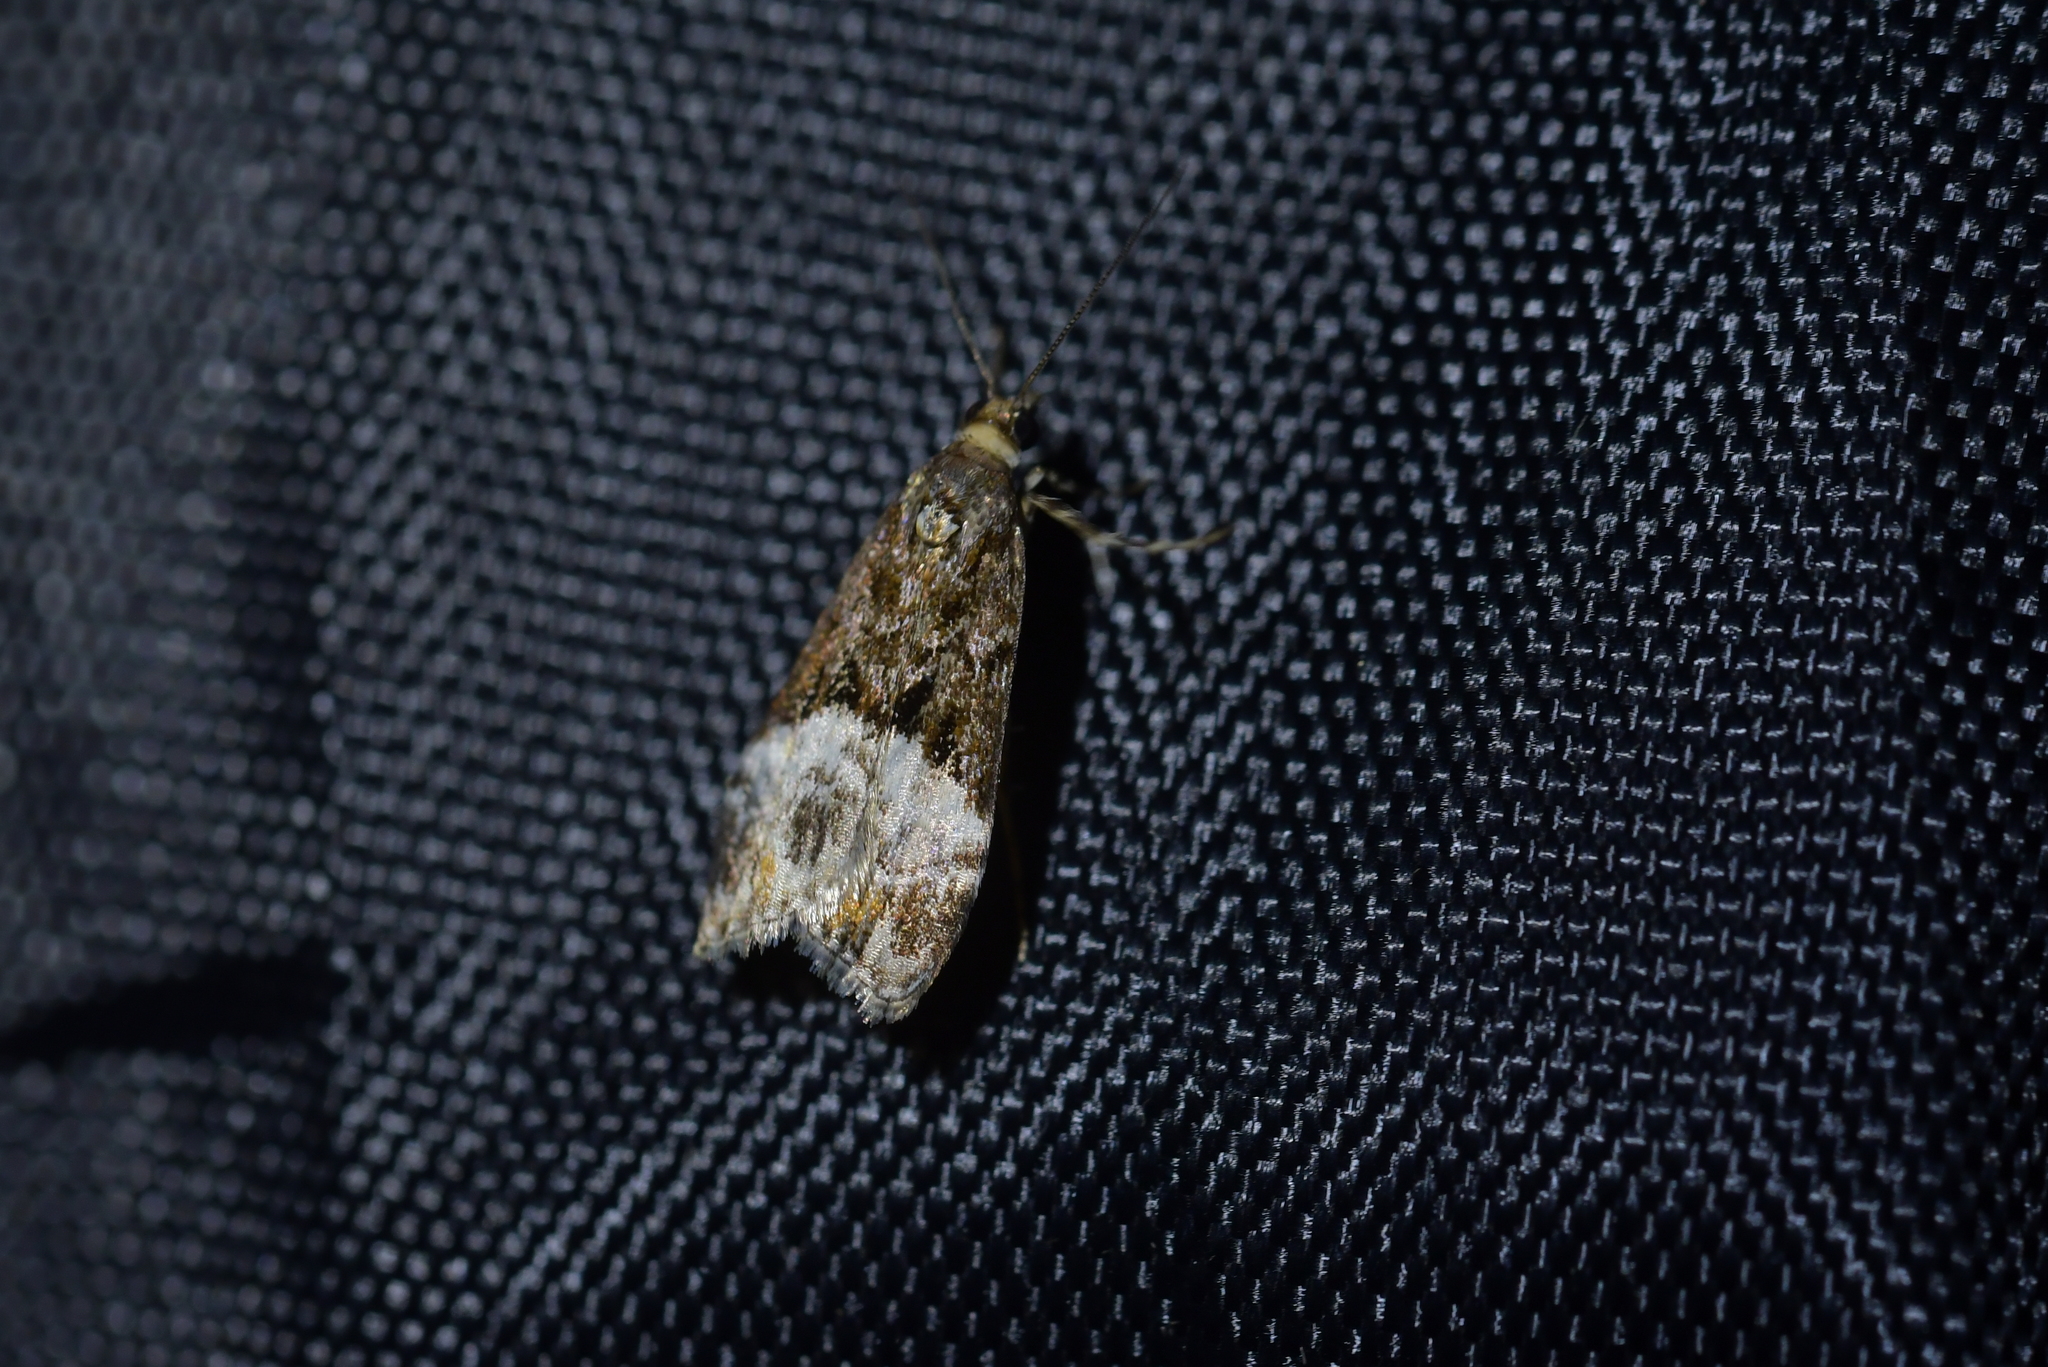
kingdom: Animalia
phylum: Arthropoda
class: Insecta
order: Lepidoptera
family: Crambidae
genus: Scoparia
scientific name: Scoparia minusculalis
